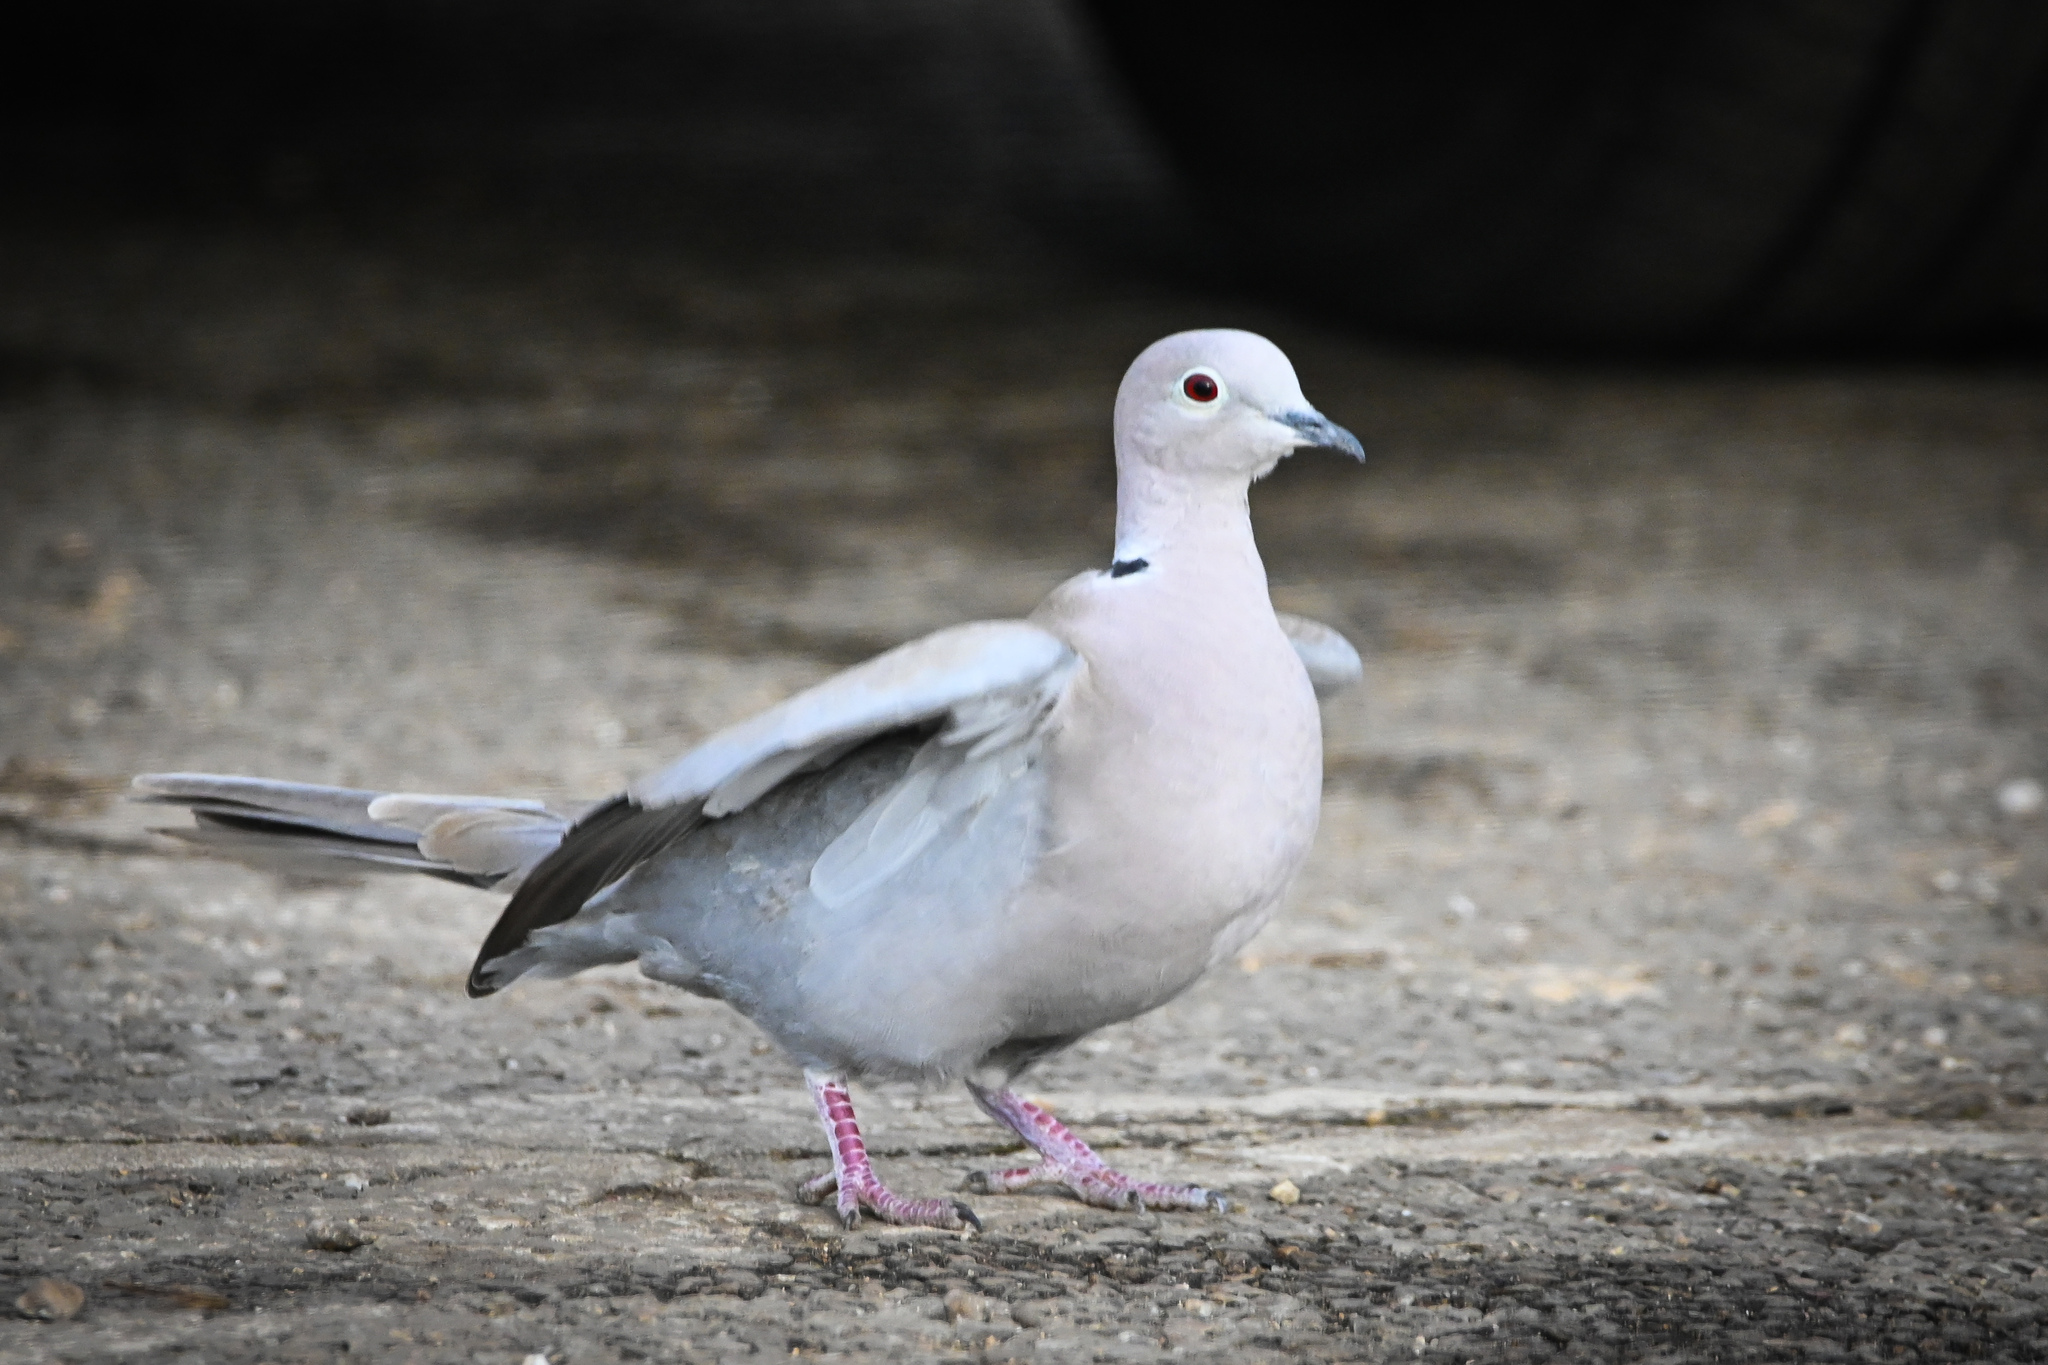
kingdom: Animalia
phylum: Chordata
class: Aves
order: Columbiformes
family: Columbidae
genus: Streptopelia
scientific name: Streptopelia decaocto
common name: Eurasian collared dove
